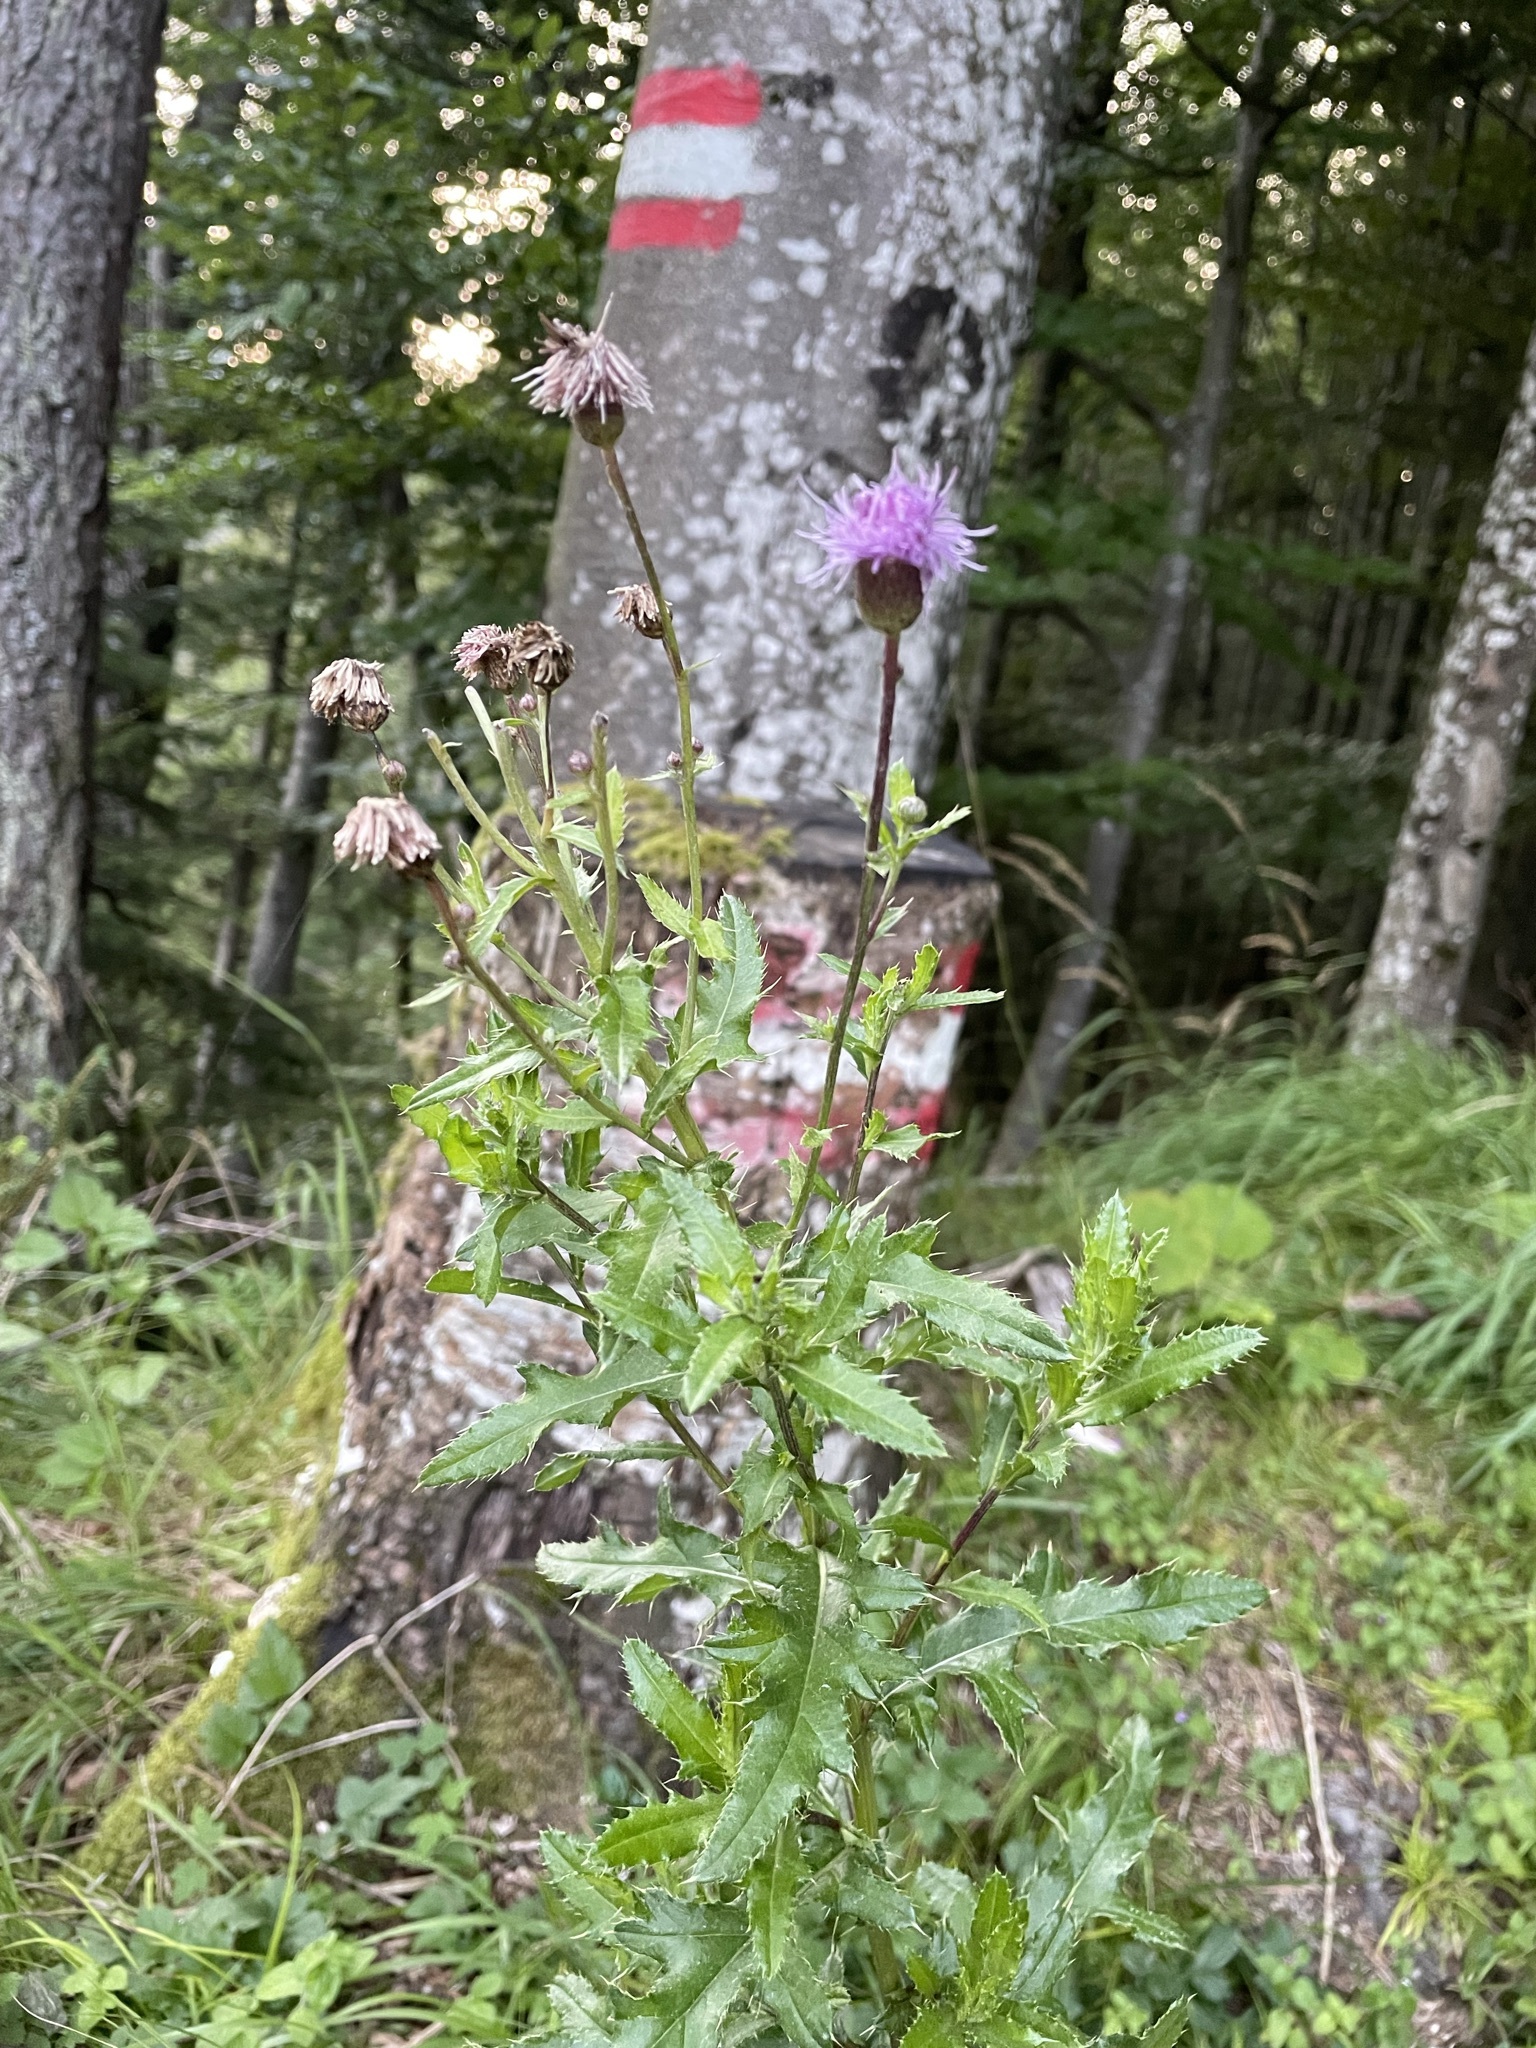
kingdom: Plantae
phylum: Tracheophyta
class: Magnoliopsida
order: Asterales
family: Asteraceae
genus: Cirsium
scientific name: Cirsium arvense
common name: Creeping thistle
